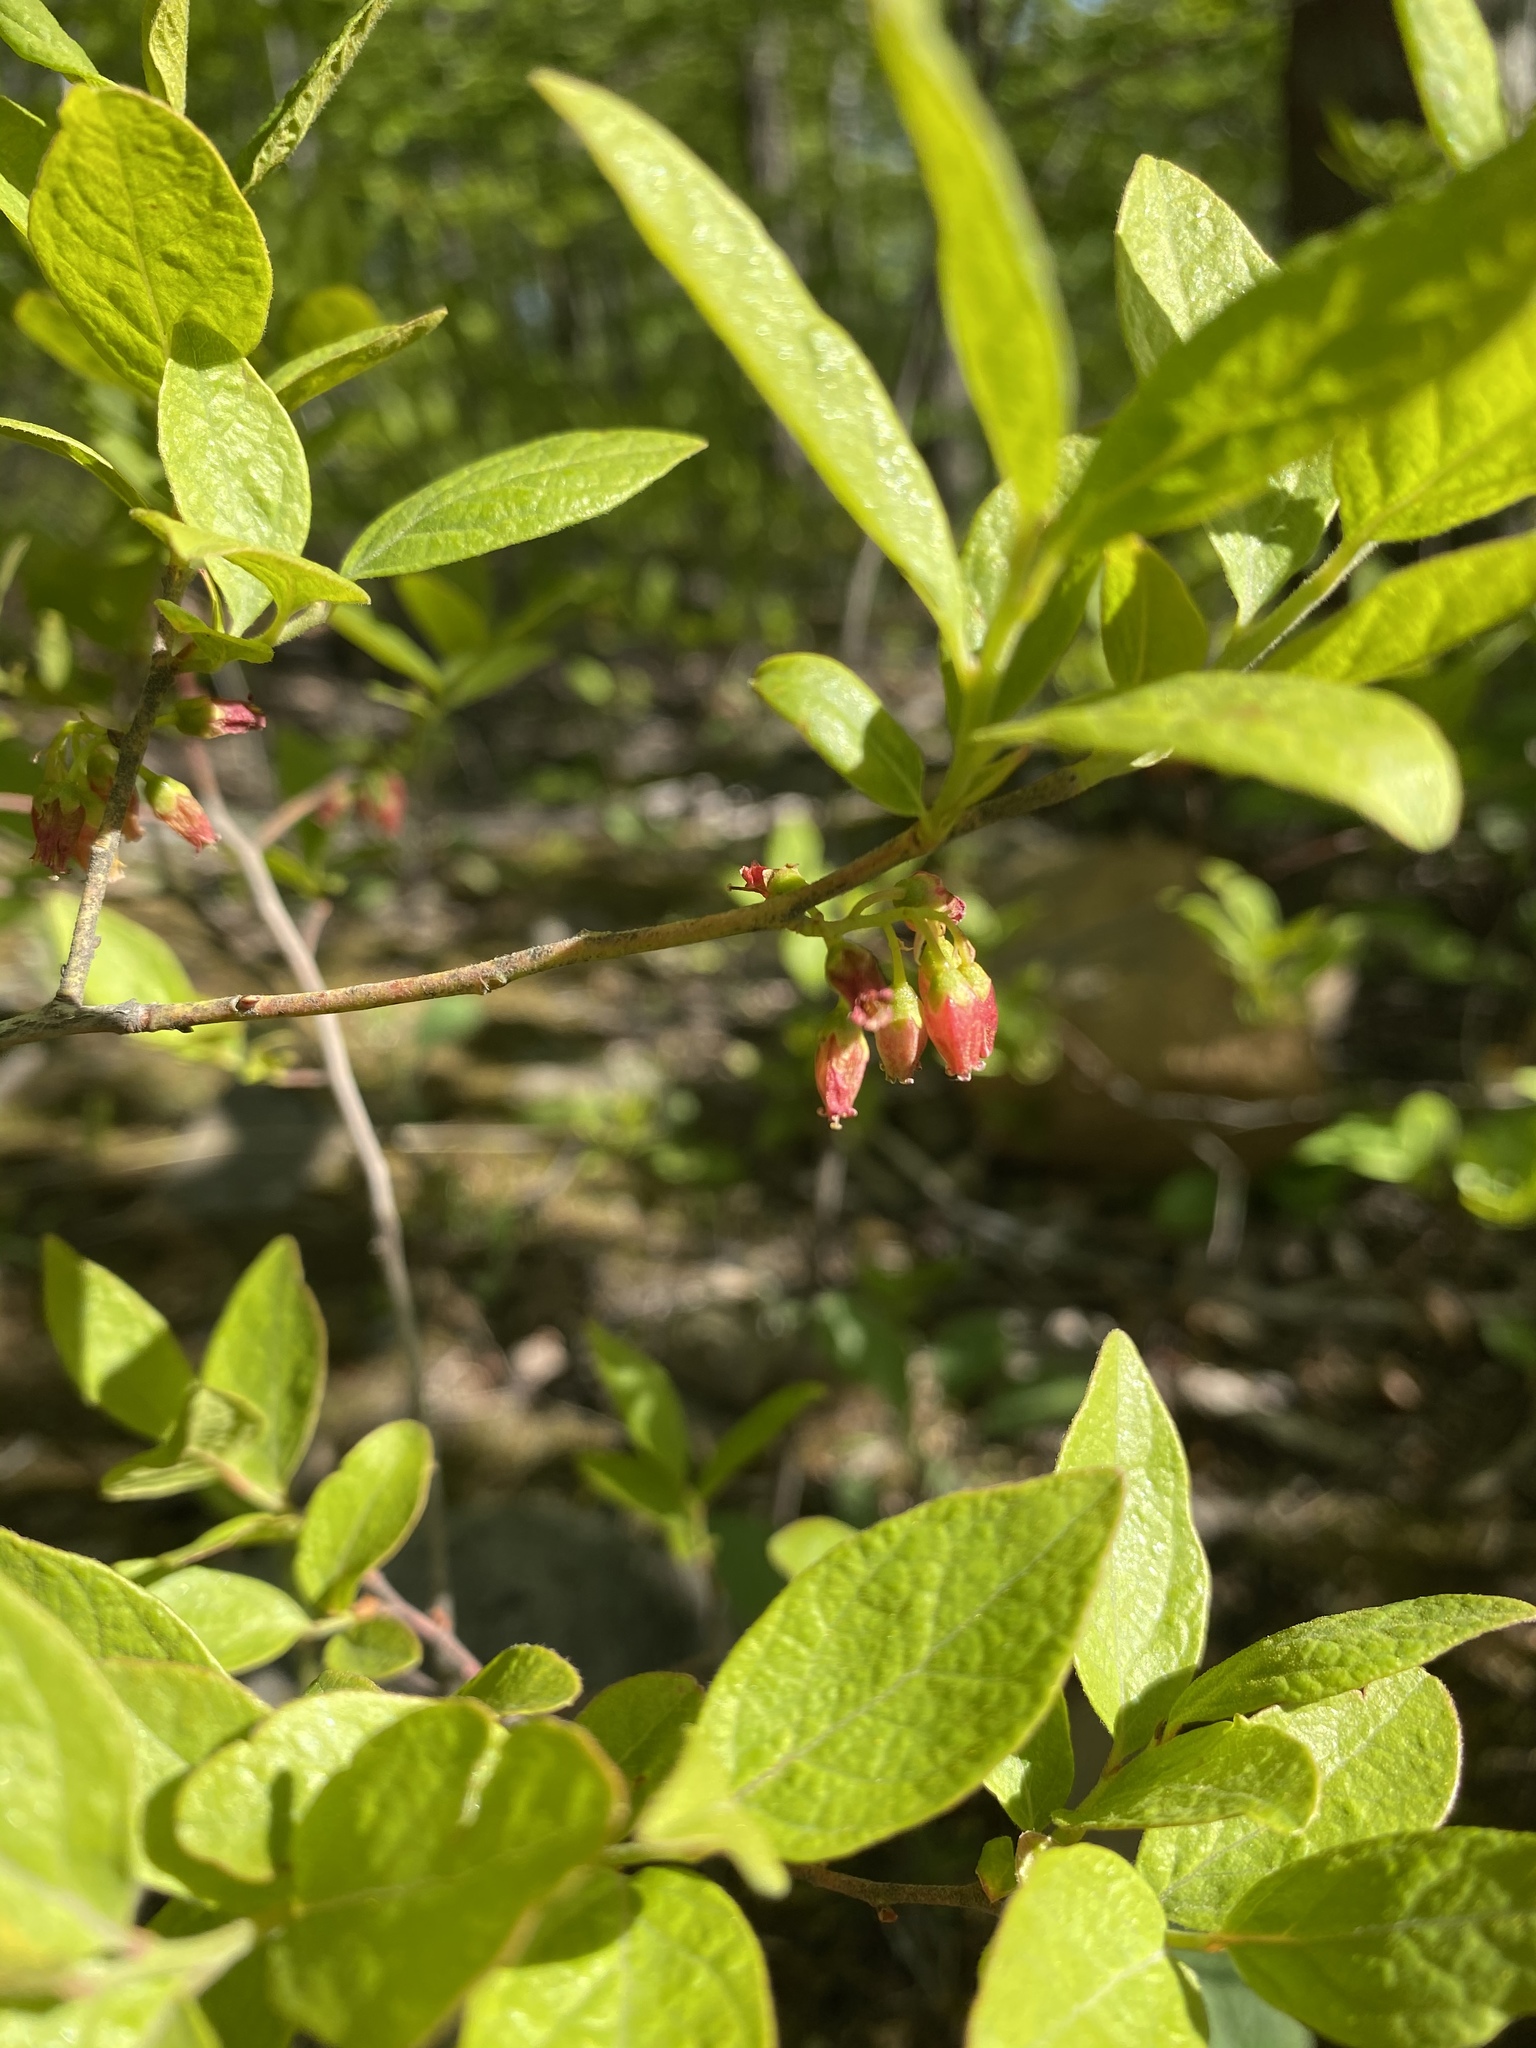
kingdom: Plantae
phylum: Tracheophyta
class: Magnoliopsida
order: Ericales
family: Ericaceae
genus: Gaylussacia
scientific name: Gaylussacia baccata
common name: Black huckleberry
